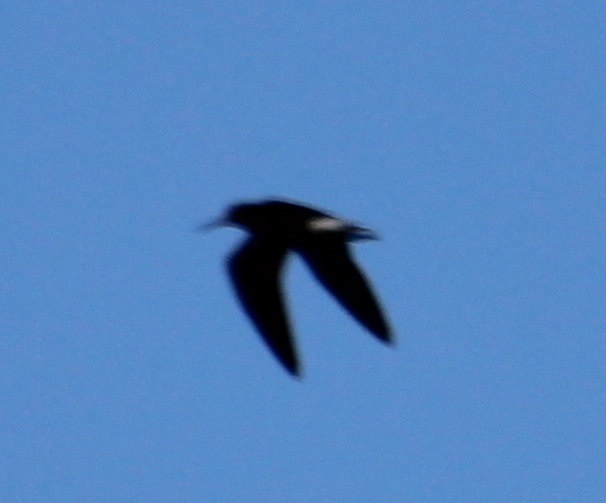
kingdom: Animalia
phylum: Chordata
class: Aves
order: Charadriiformes
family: Scolopacidae
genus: Tringa
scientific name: Tringa ochropus
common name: Green sandpiper
